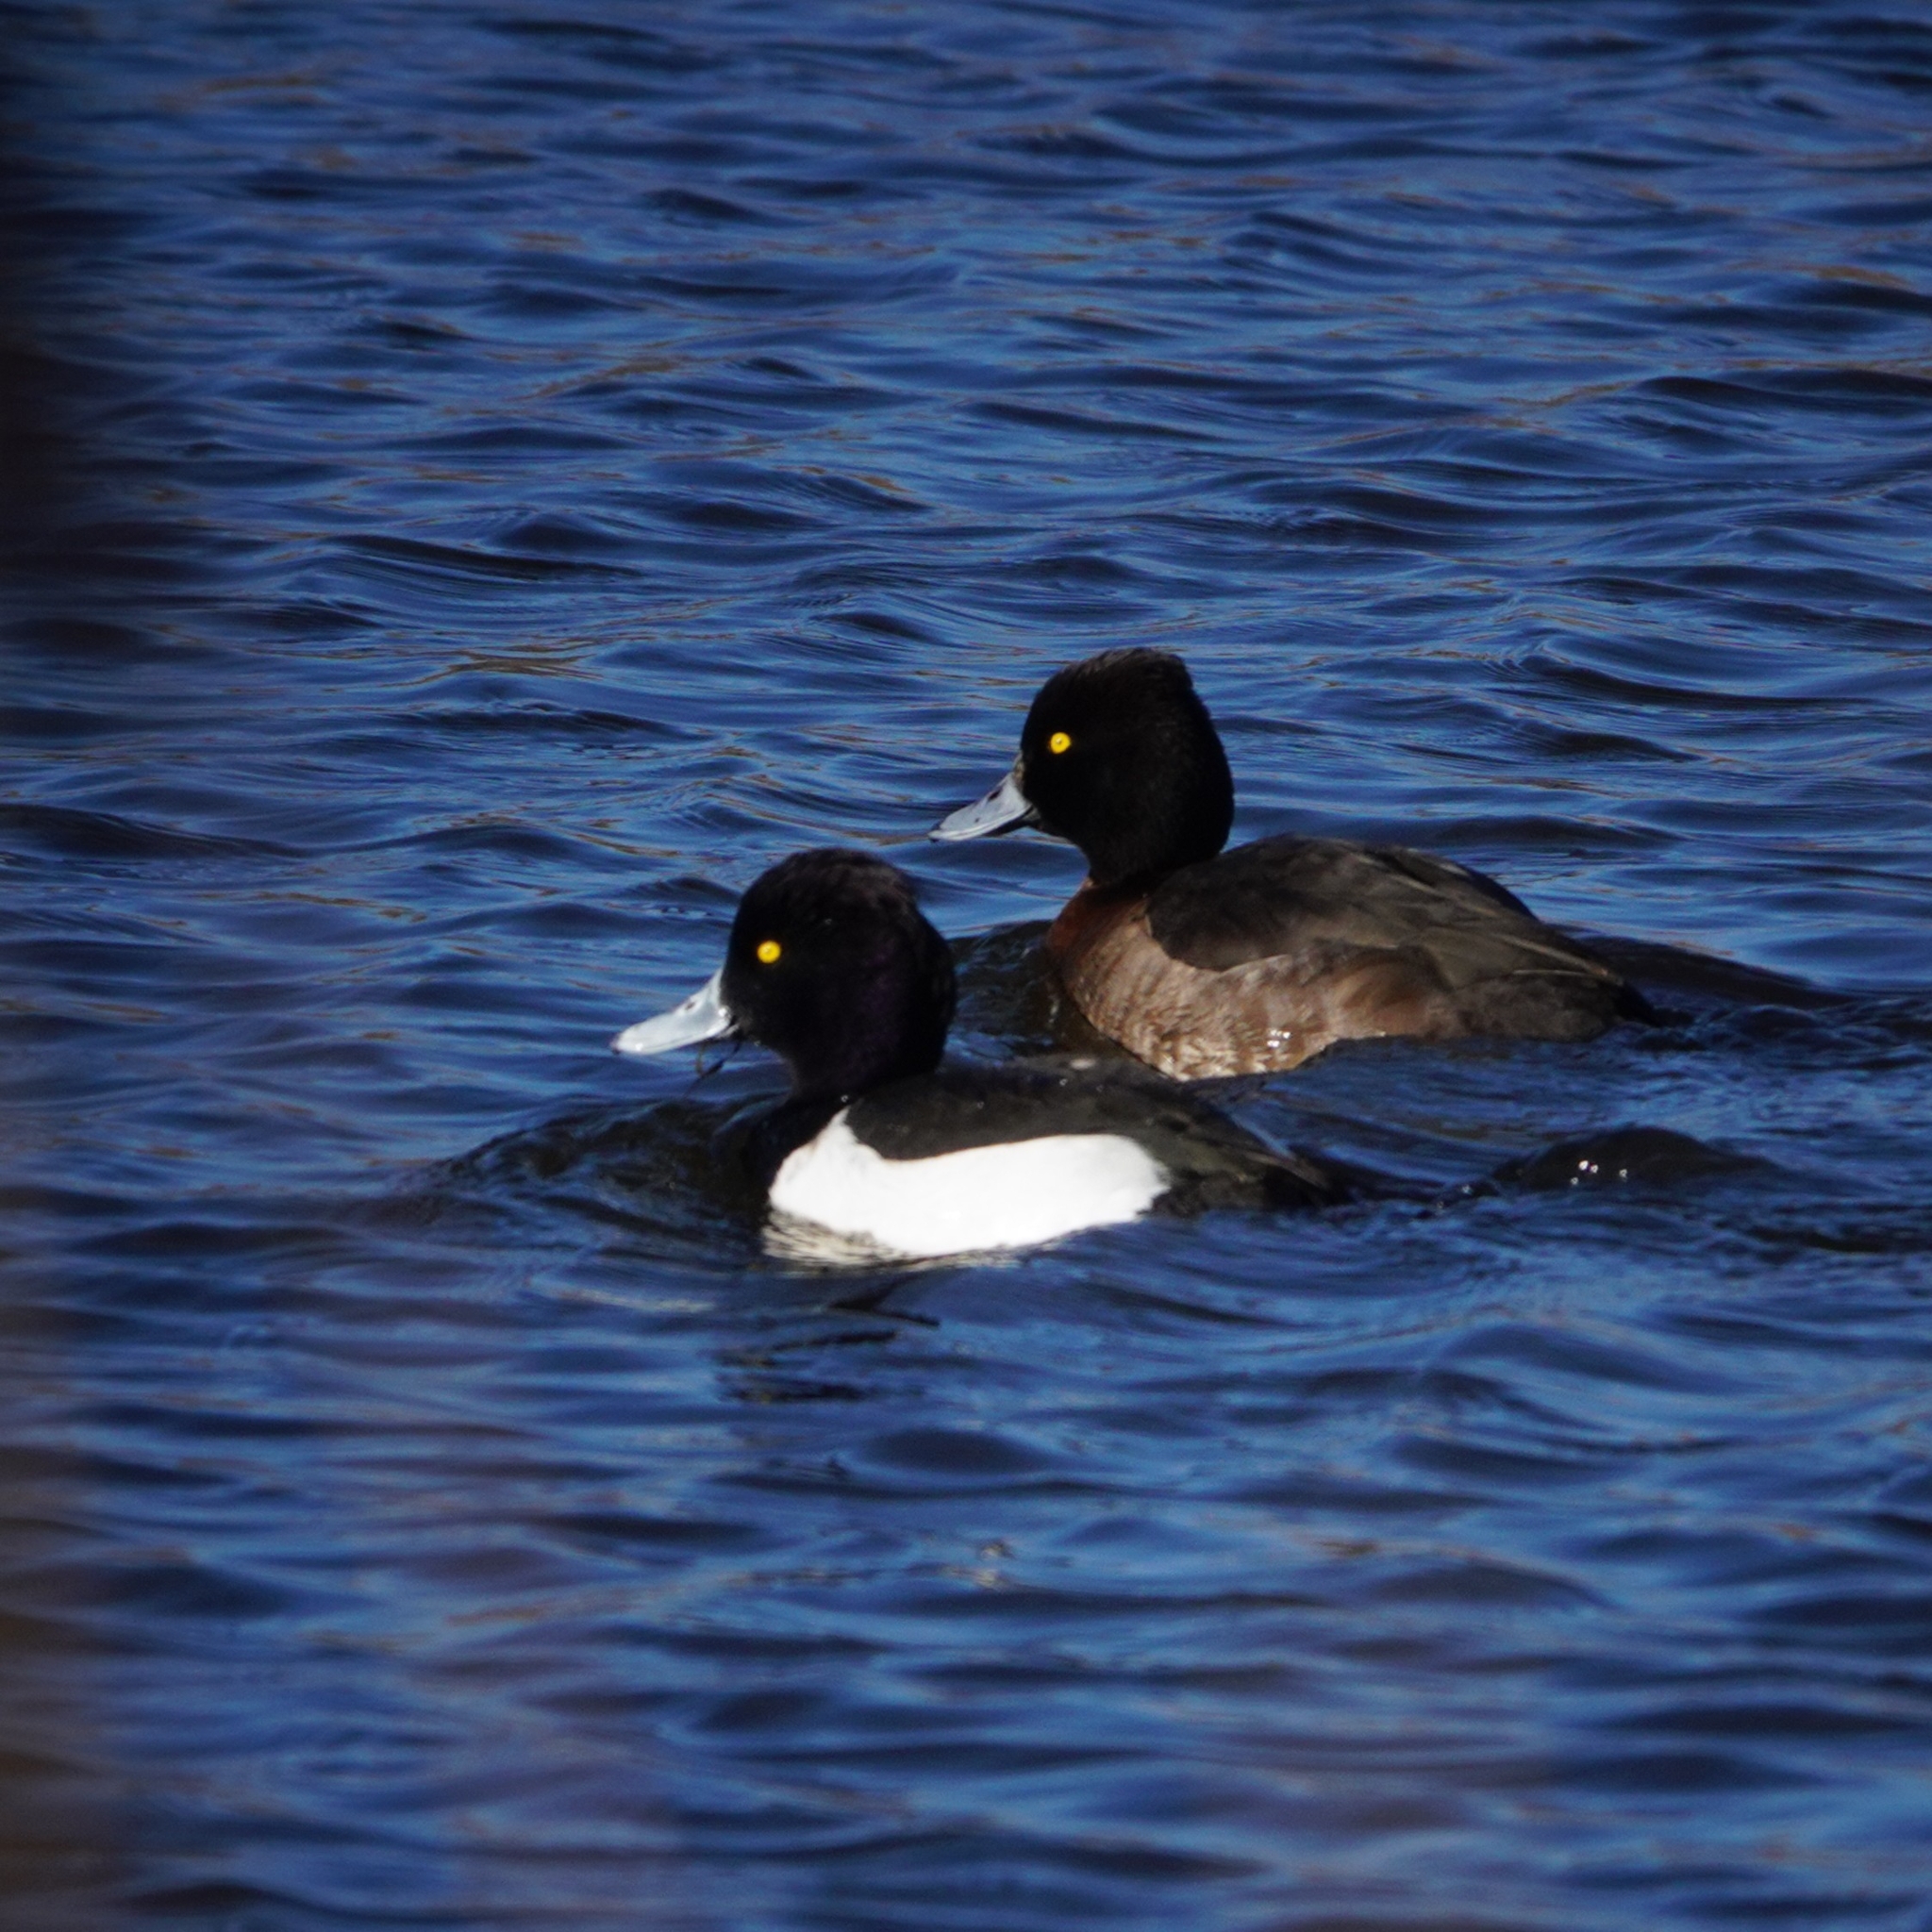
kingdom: Animalia
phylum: Chordata
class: Aves
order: Anseriformes
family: Anatidae
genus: Aythya
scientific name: Aythya fuligula
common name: Tufted duck
